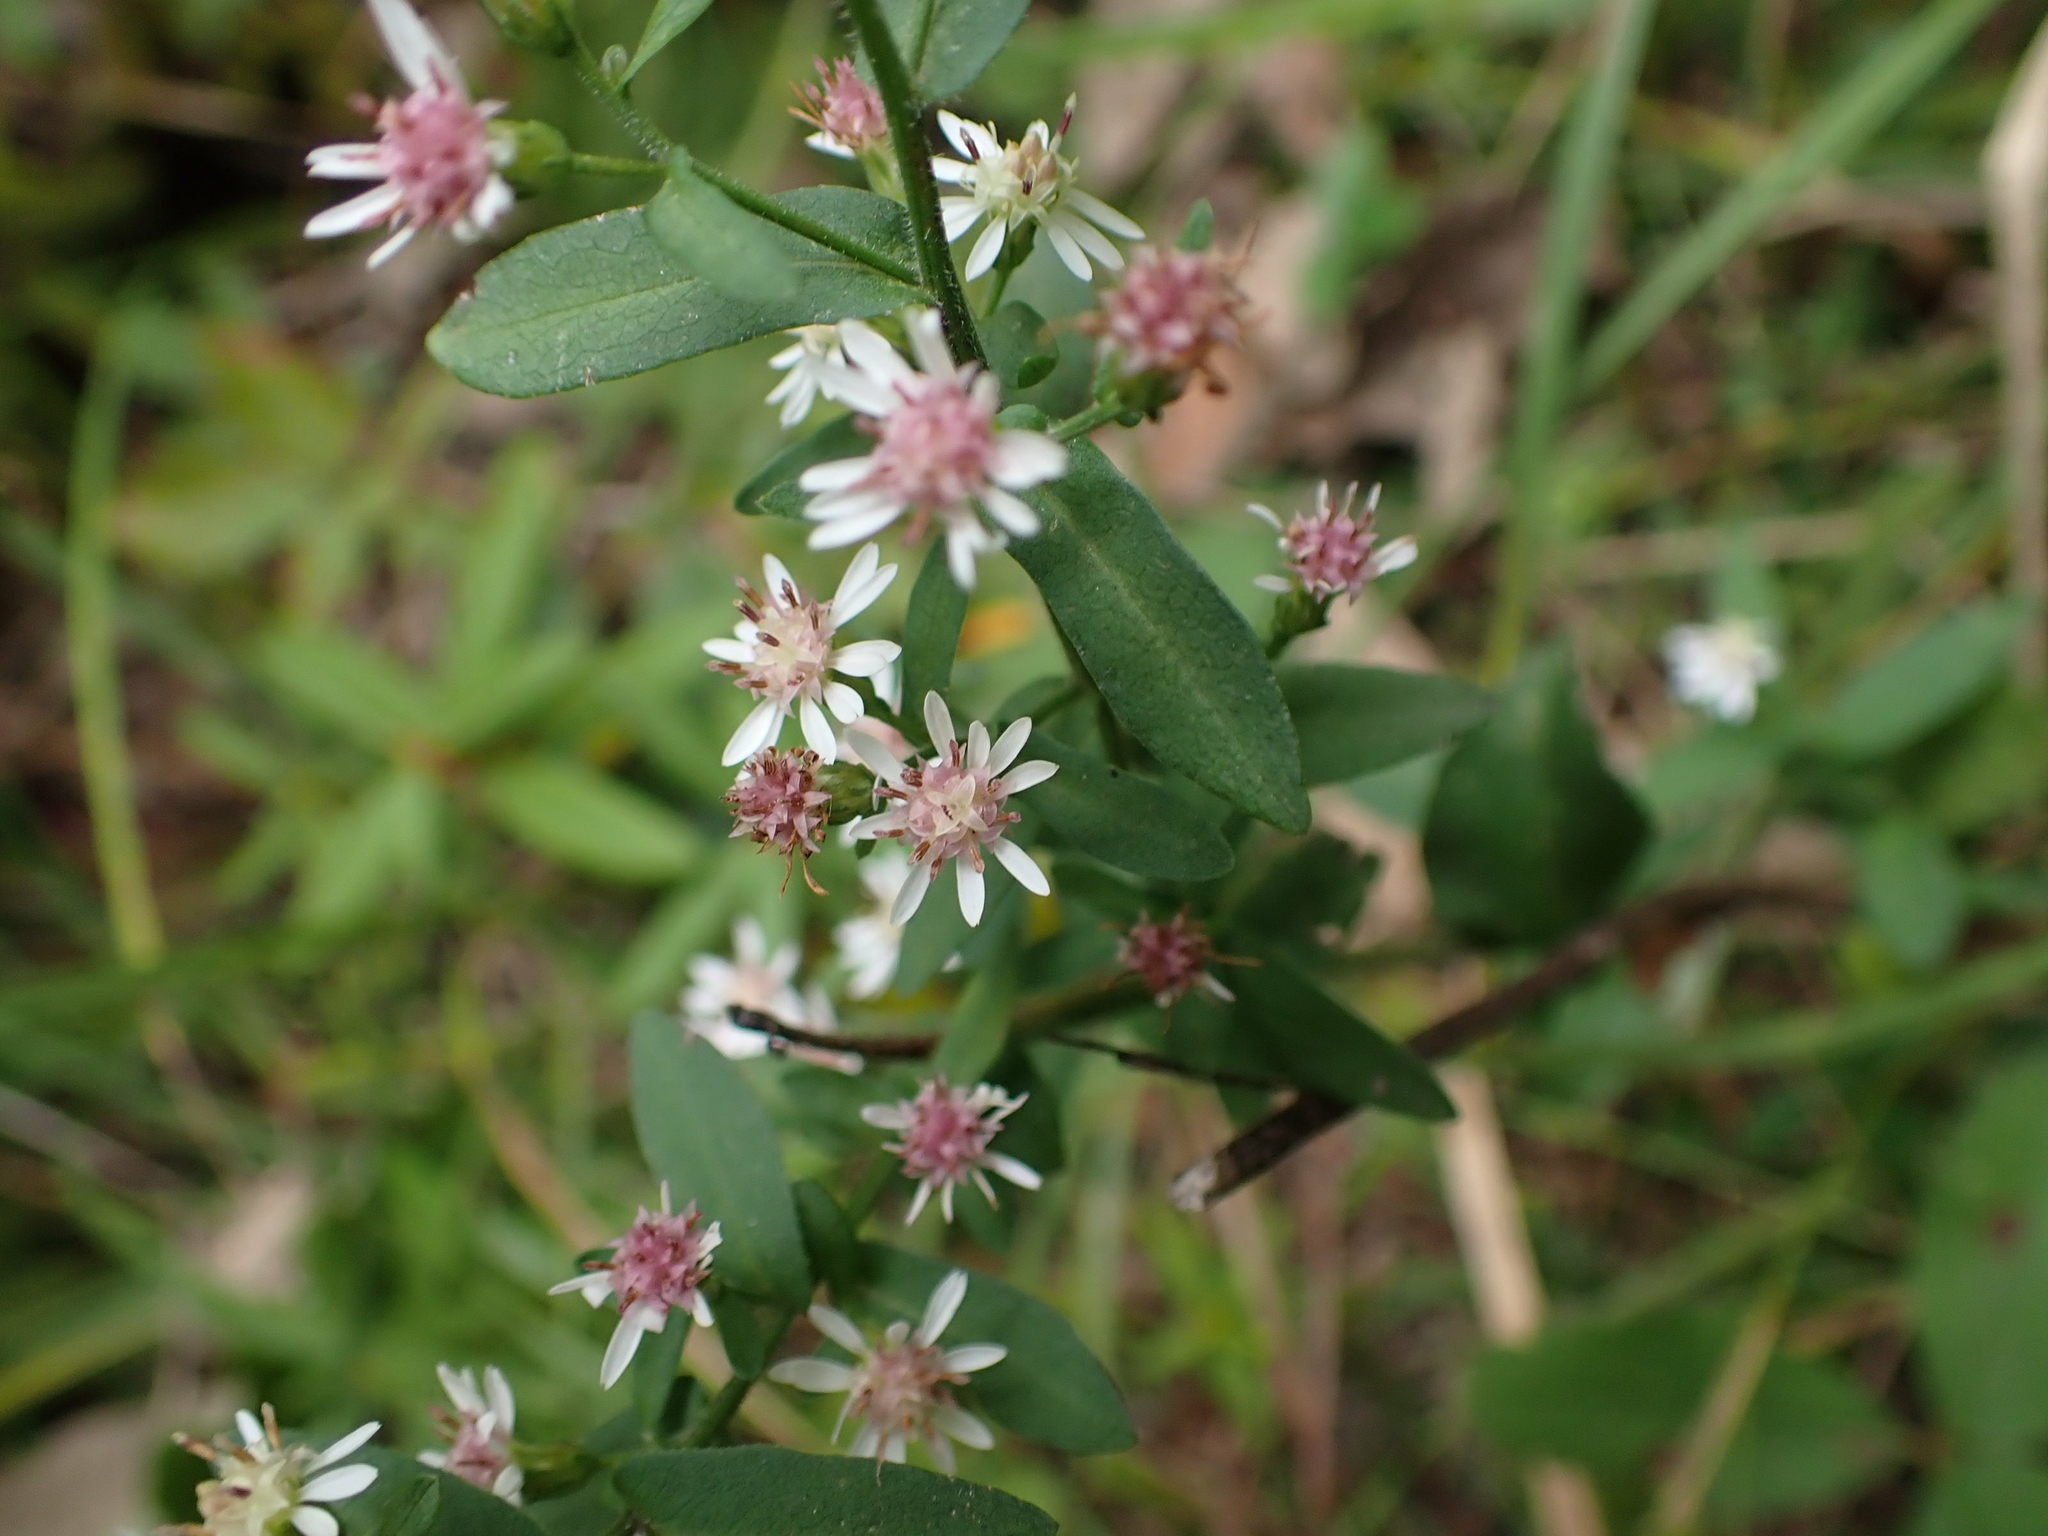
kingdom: Plantae
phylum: Tracheophyta
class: Magnoliopsida
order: Asterales
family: Asteraceae
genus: Symphyotrichum
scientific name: Symphyotrichum lateriflorum
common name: Calico aster
